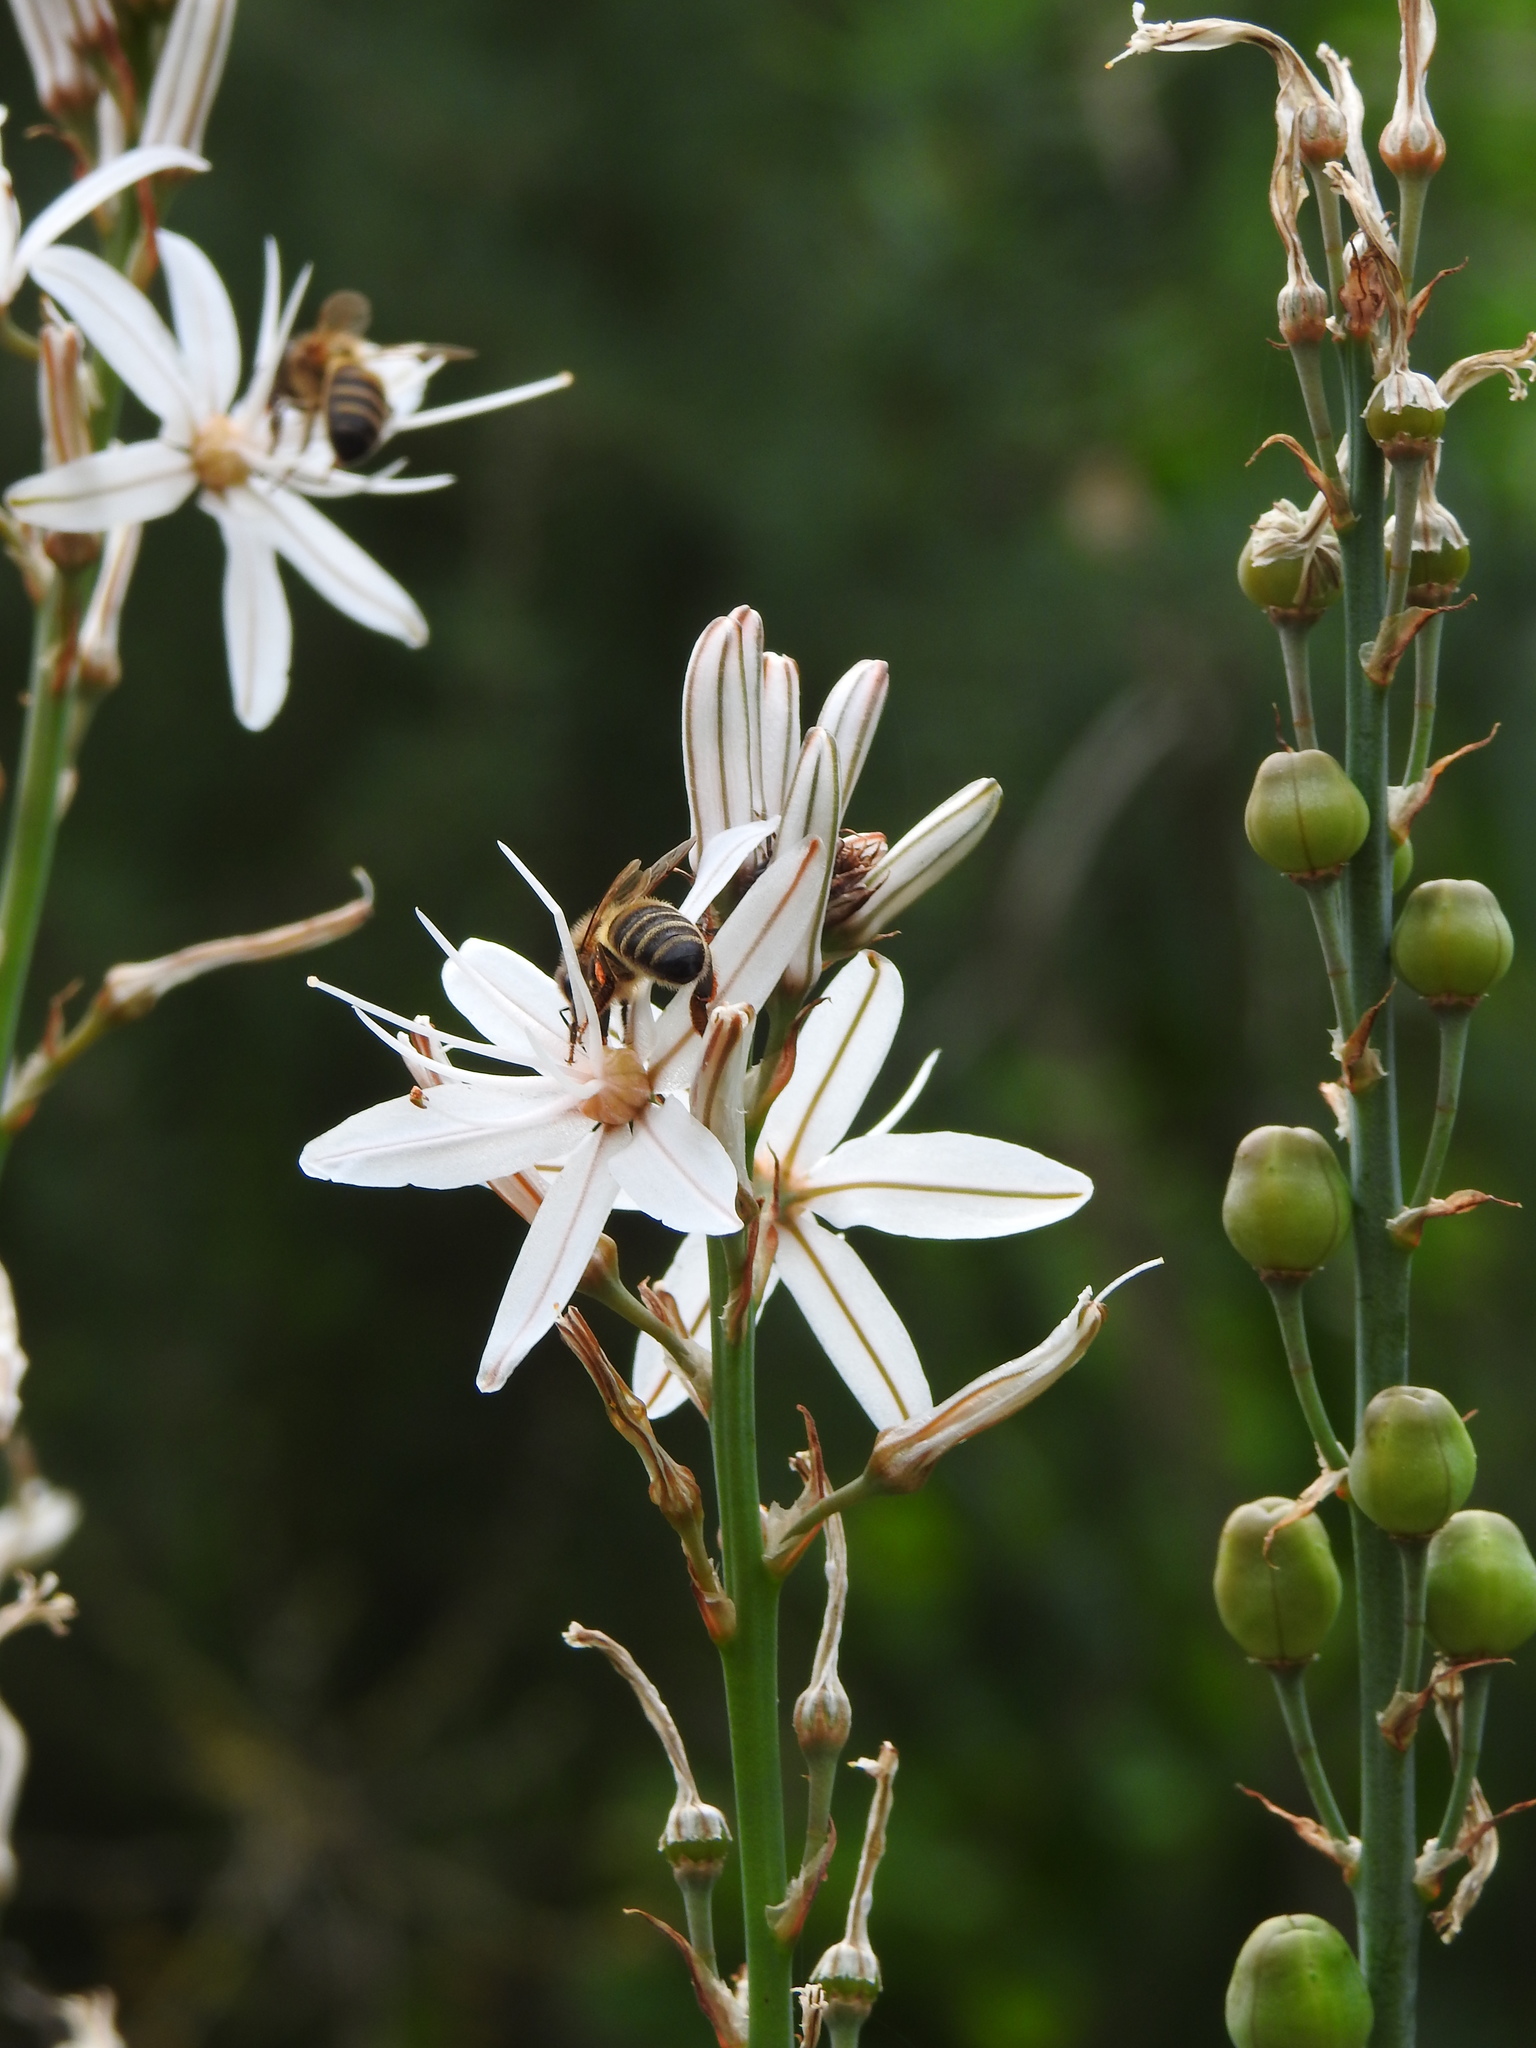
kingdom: Animalia
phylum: Arthropoda
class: Insecta
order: Hymenoptera
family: Apidae
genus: Apis
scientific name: Apis mellifera
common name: Honey bee
